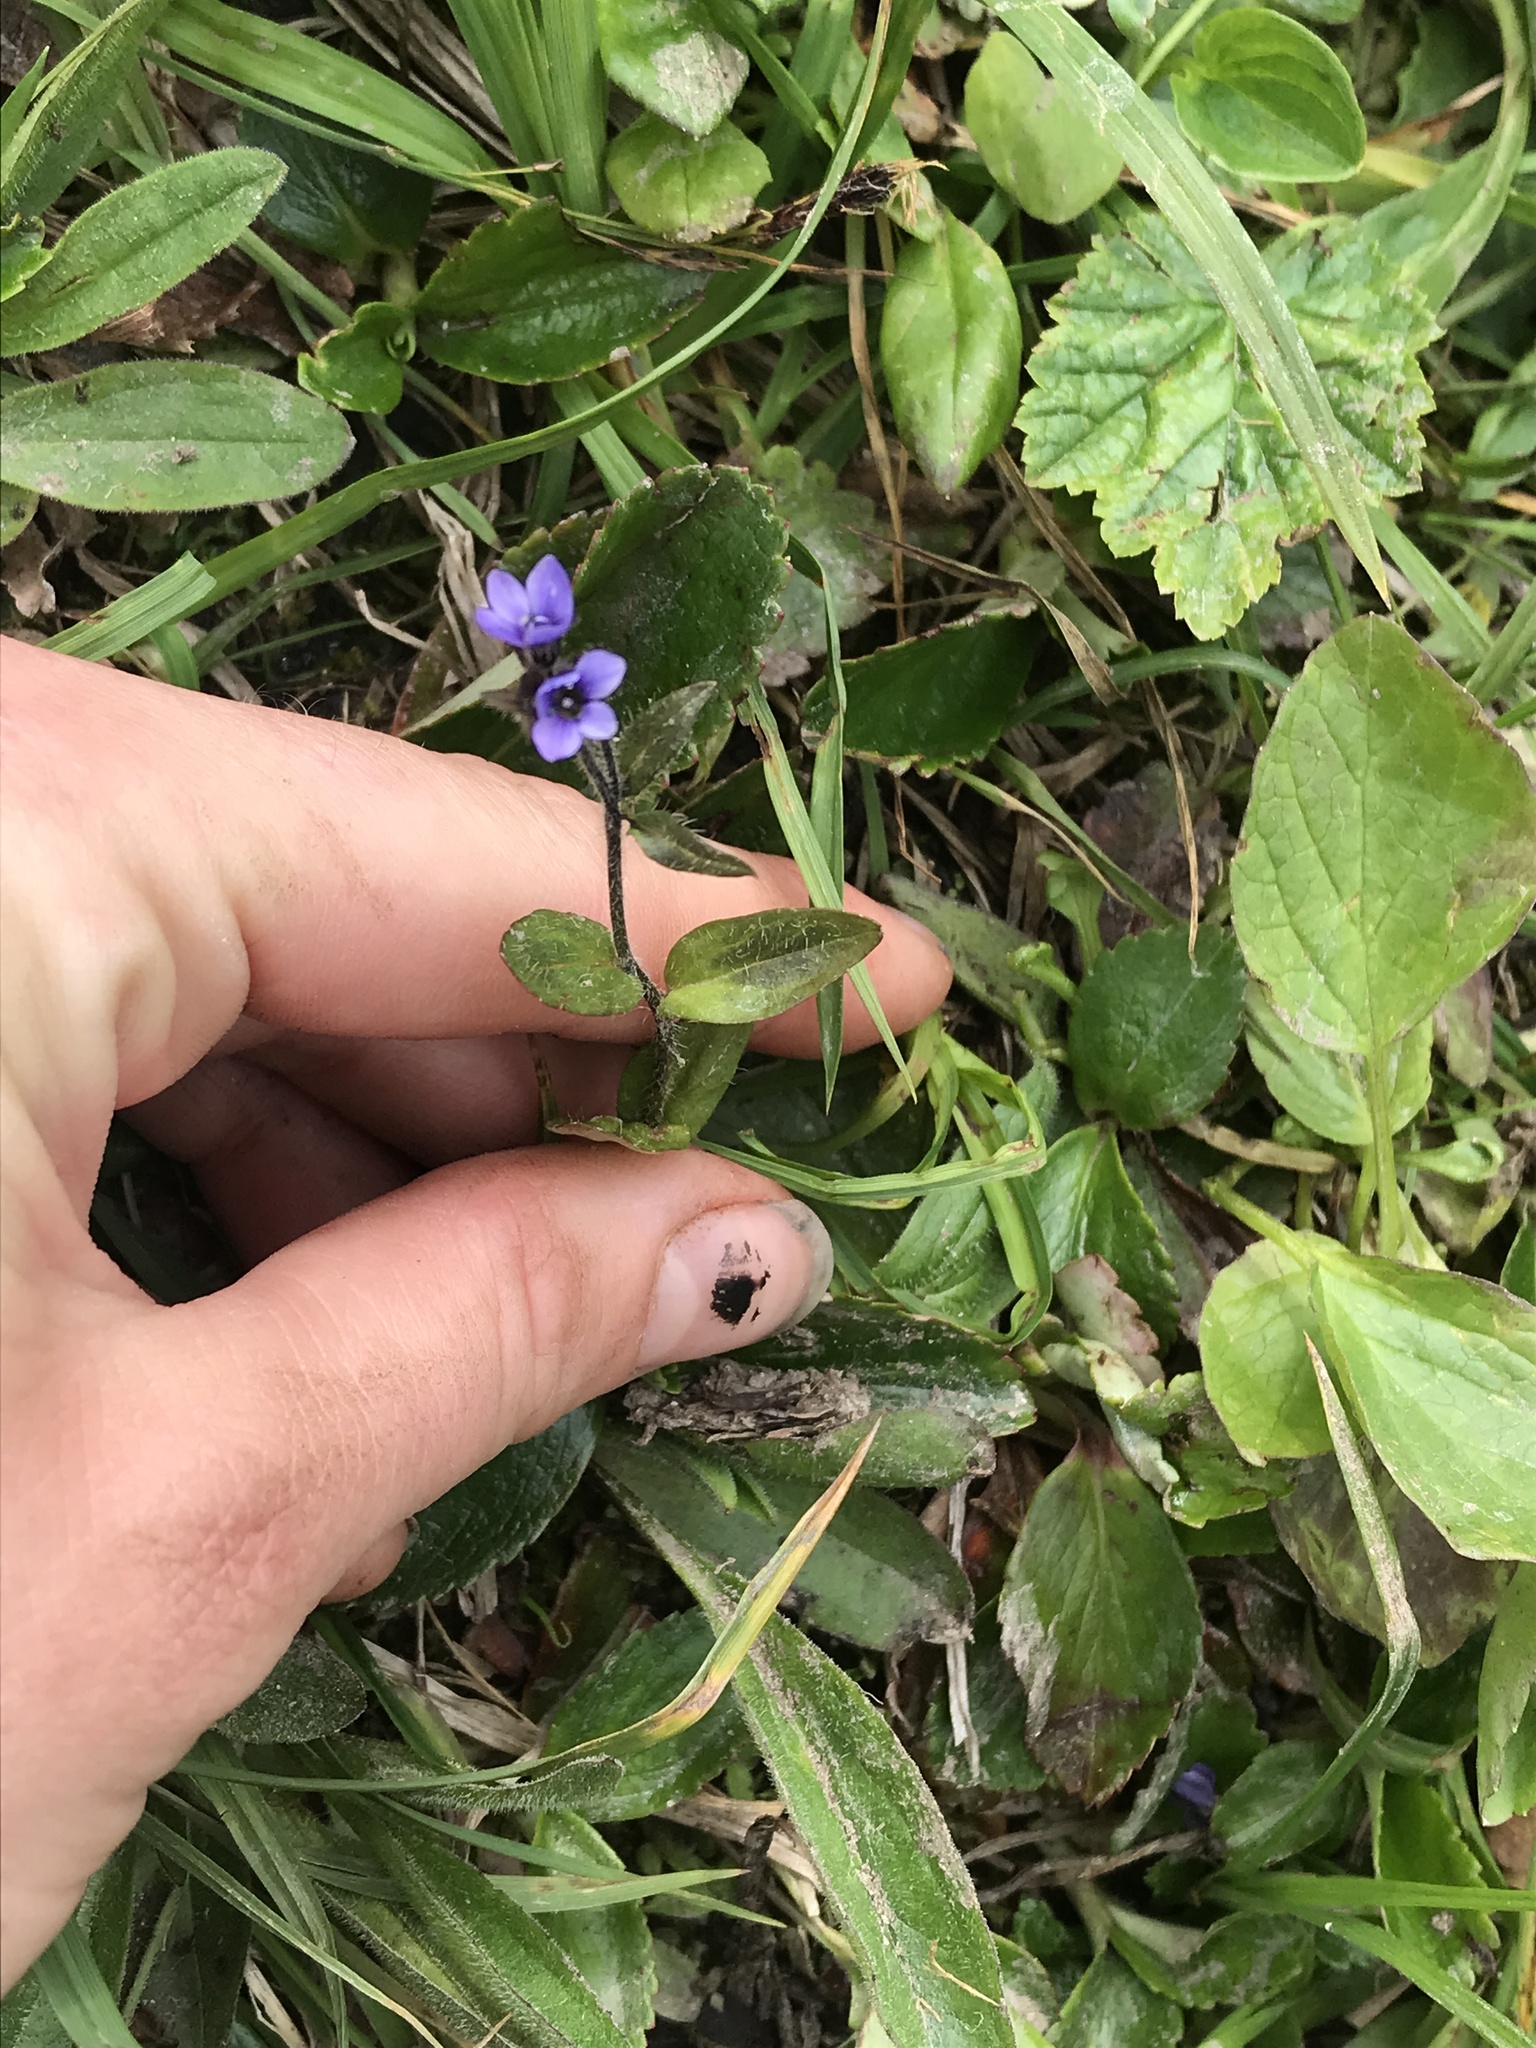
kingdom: Plantae
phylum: Tracheophyta
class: Magnoliopsida
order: Lamiales
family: Plantaginaceae
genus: Veronica
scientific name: Veronica wormskjoldii
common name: American alpine speedwell
